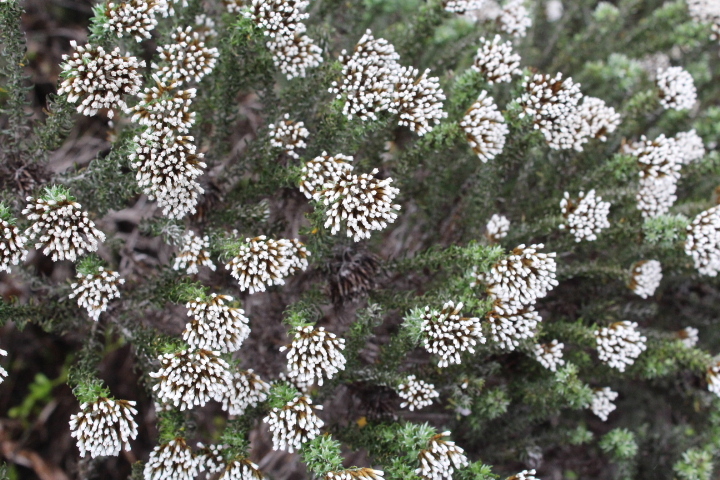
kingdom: Plantae
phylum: Tracheophyta
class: Magnoliopsida
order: Asterales
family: Asteraceae
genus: Metalasia
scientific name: Metalasia muricata
